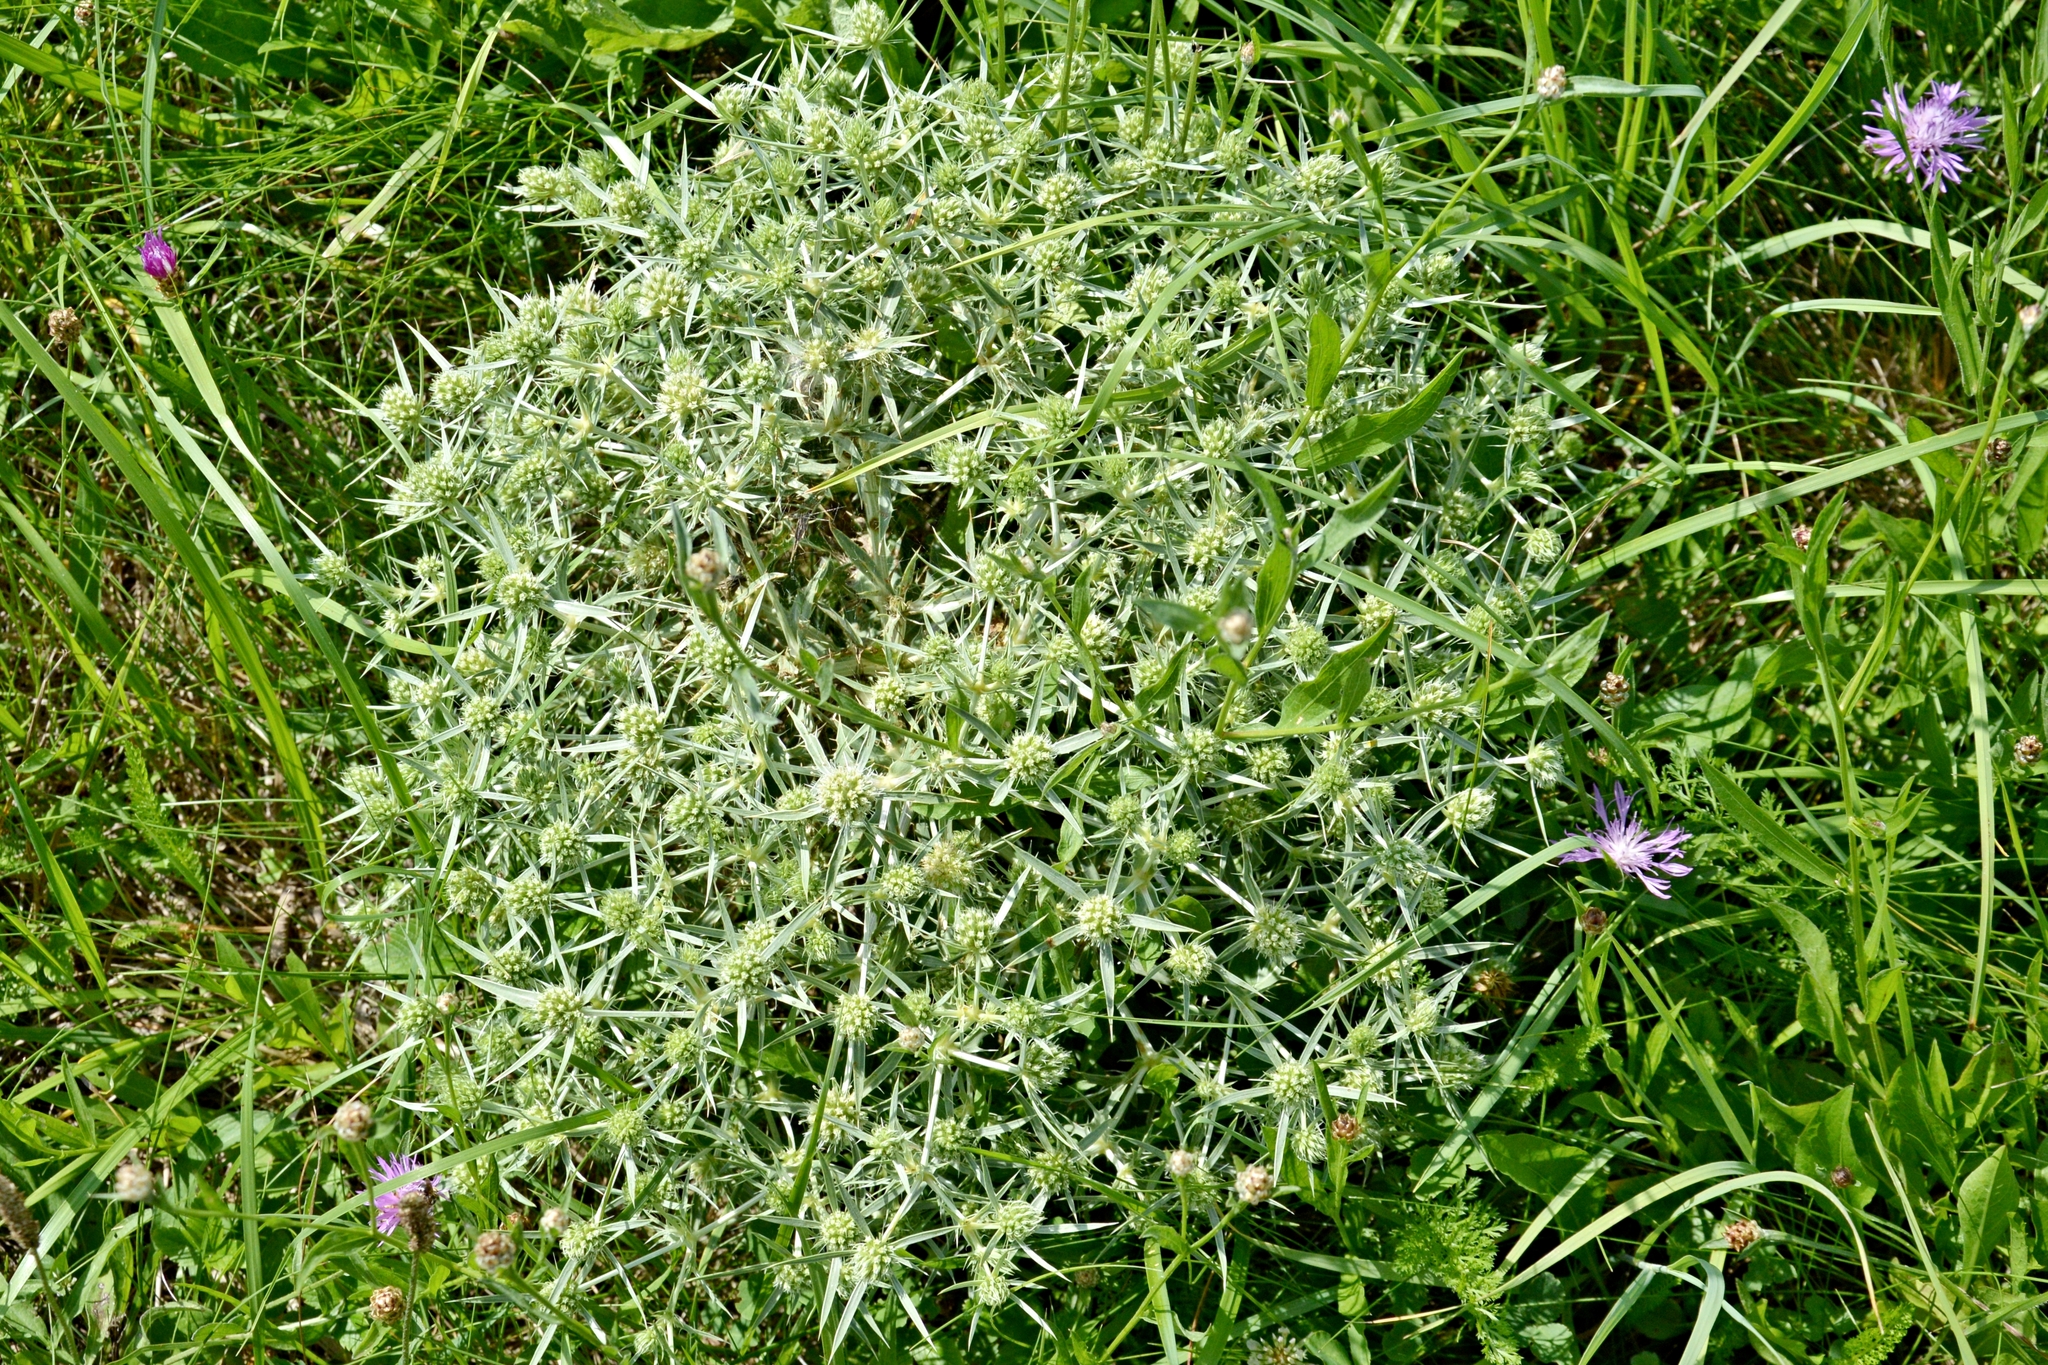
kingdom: Plantae
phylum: Tracheophyta
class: Magnoliopsida
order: Apiales
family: Apiaceae
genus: Eryngium
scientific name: Eryngium campestre
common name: Field eryngo
